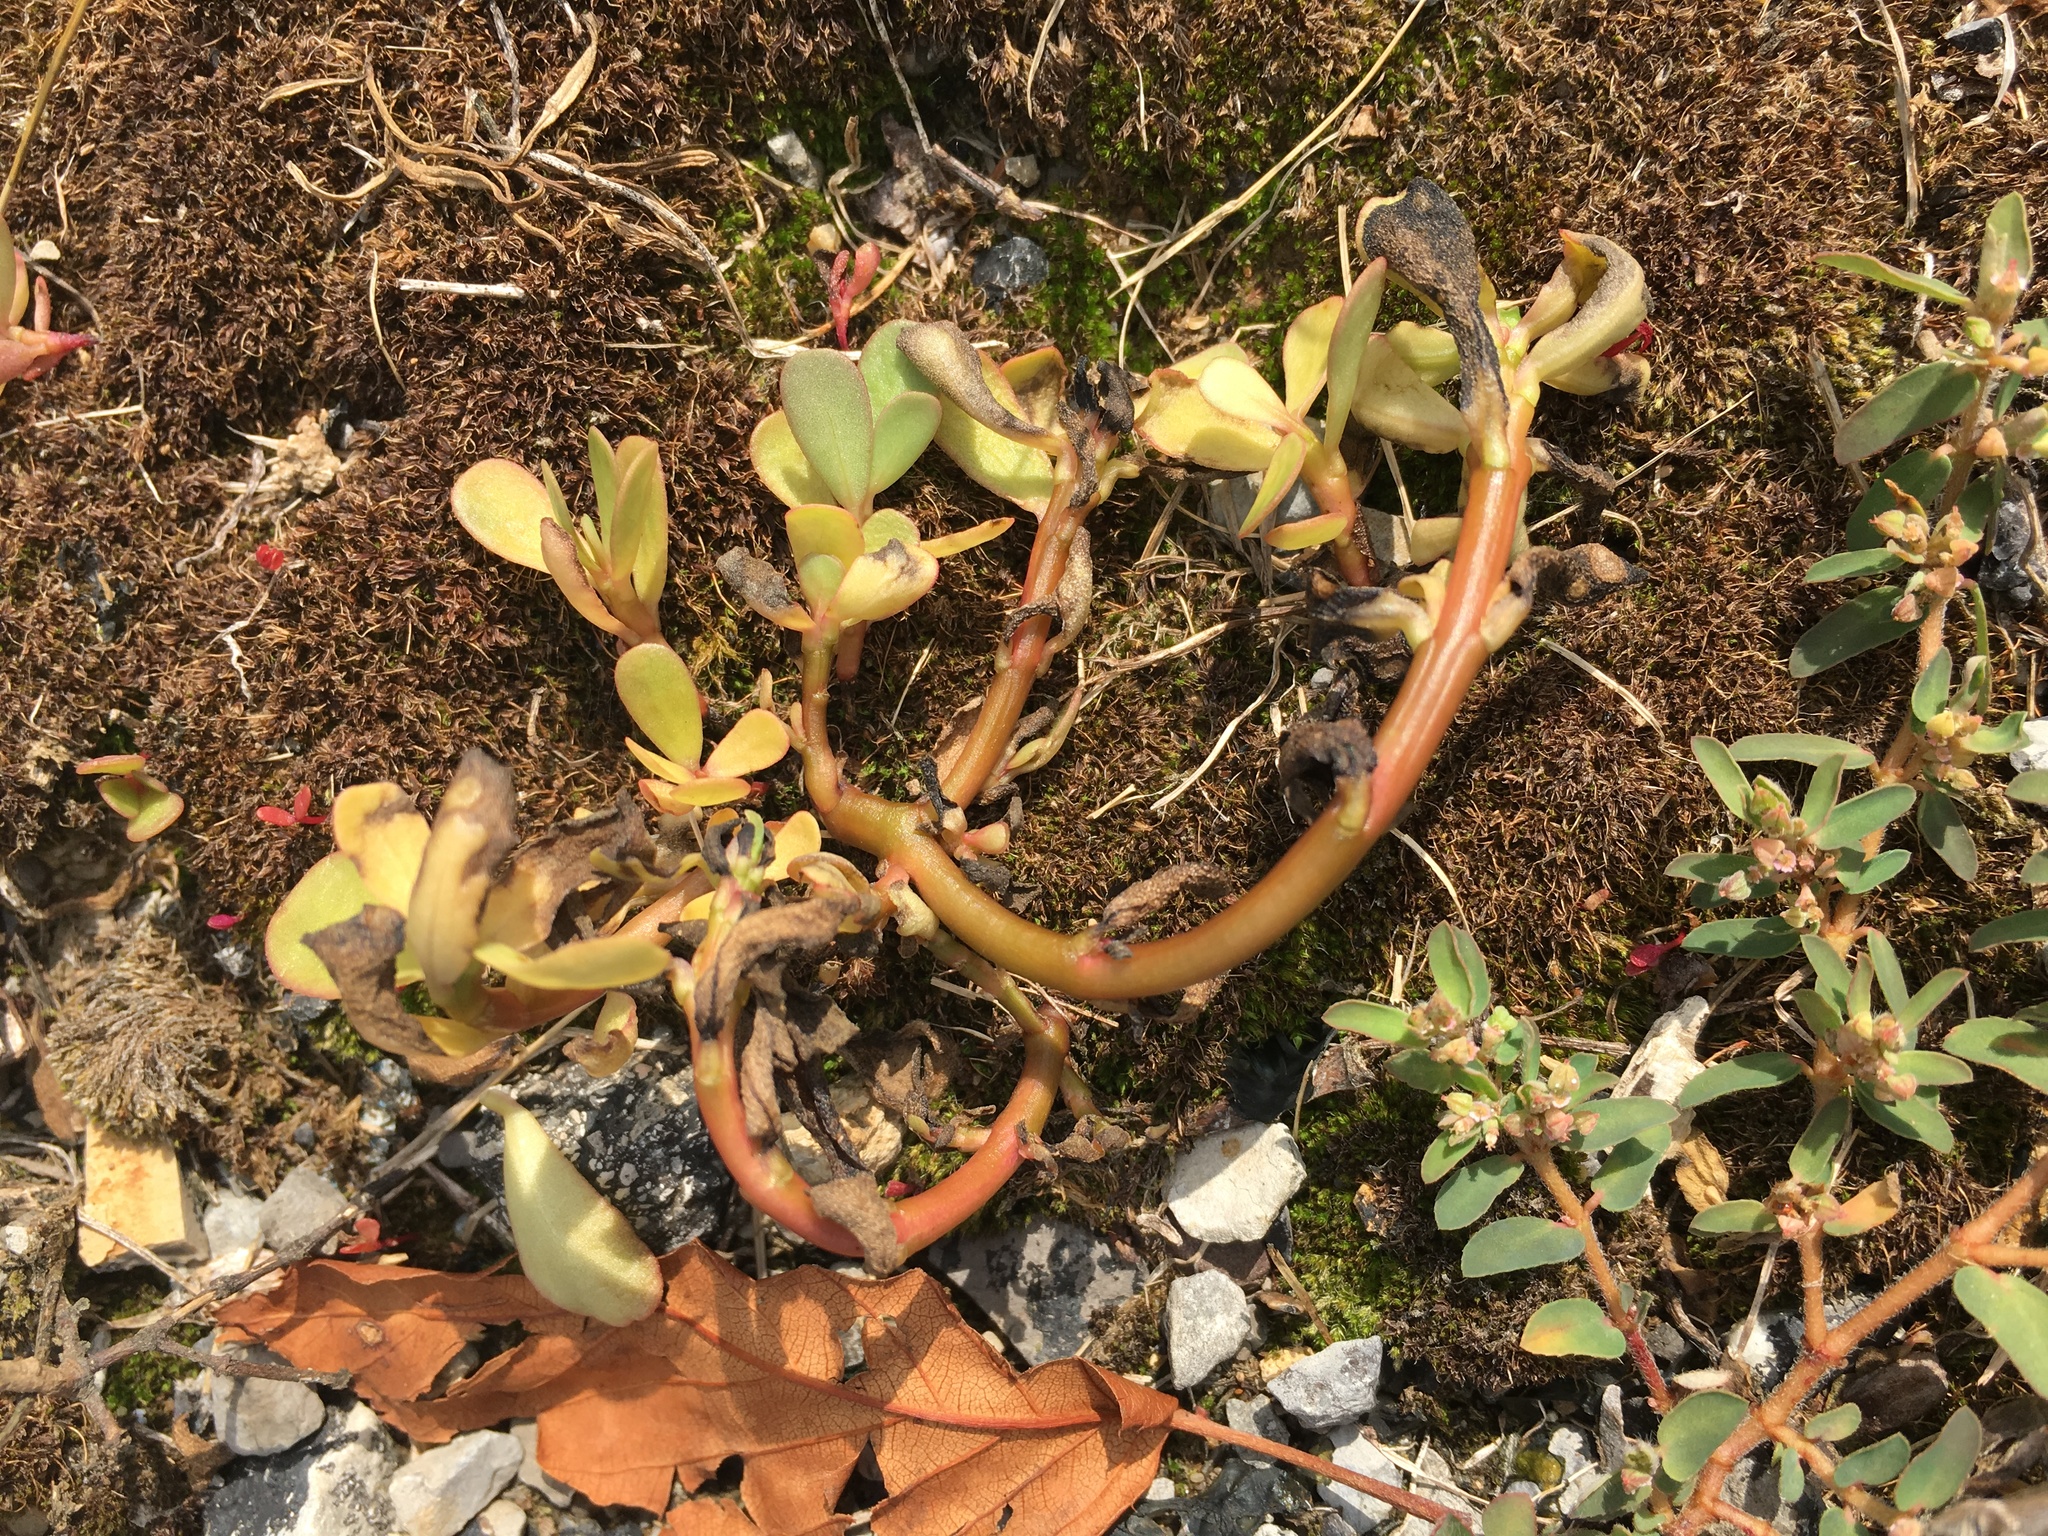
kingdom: Plantae
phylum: Tracheophyta
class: Magnoliopsida
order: Caryophyllales
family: Portulacaceae
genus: Portulaca
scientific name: Portulaca oleracea
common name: Common purslane
